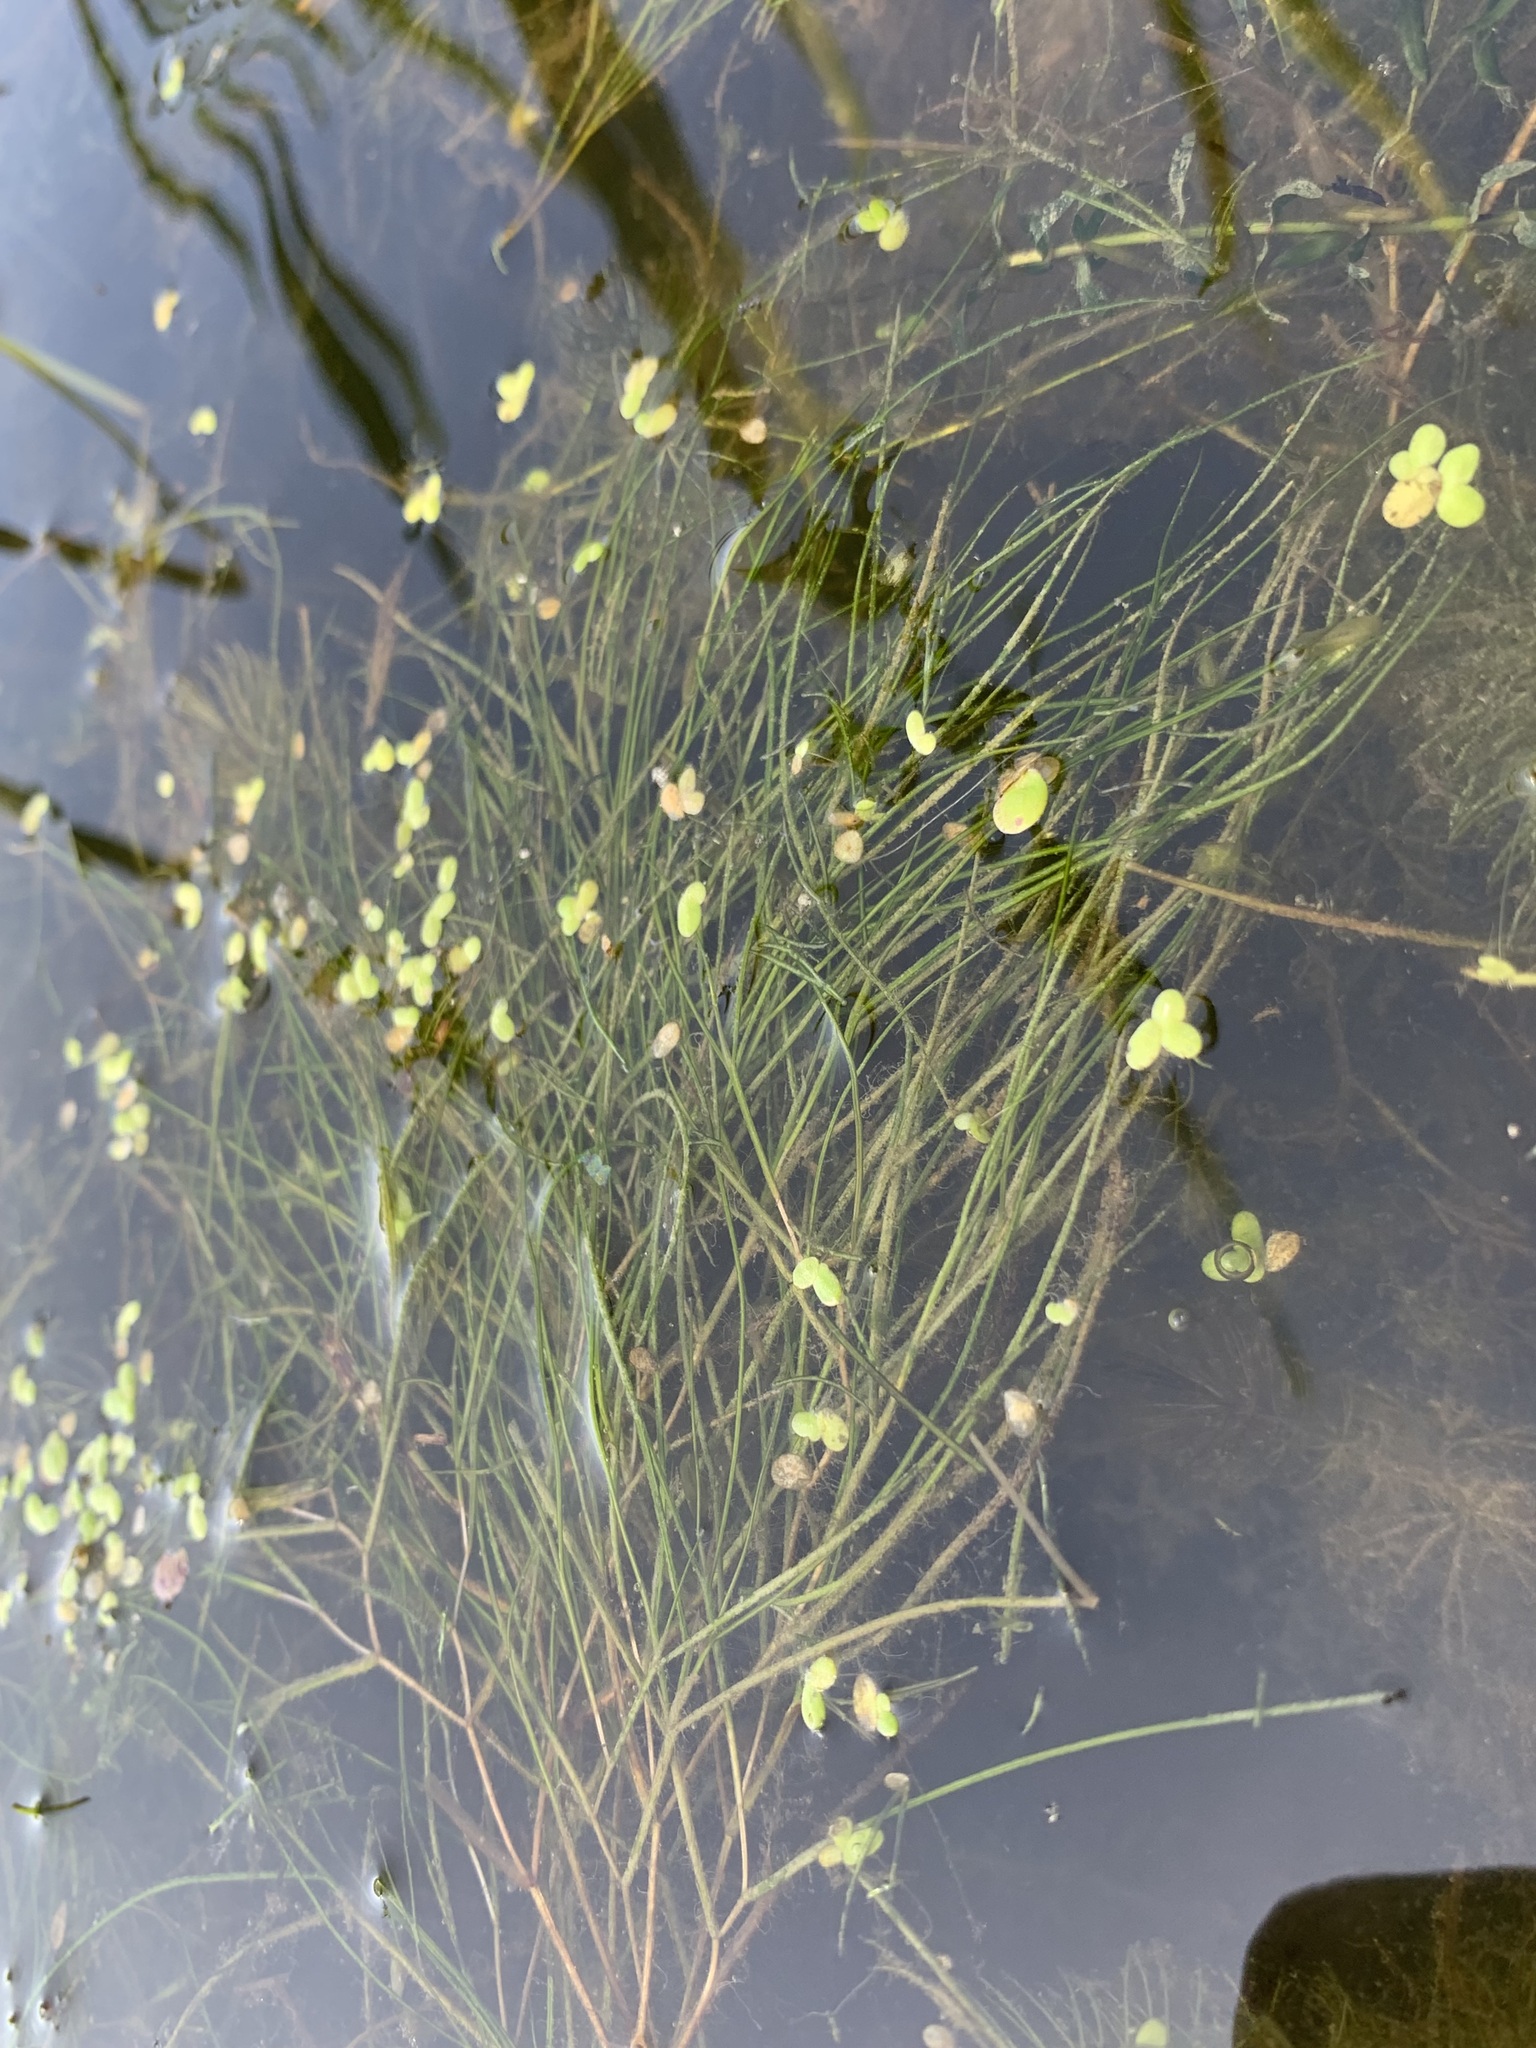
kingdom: Plantae
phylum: Tracheophyta
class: Liliopsida
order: Alismatales
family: Potamogetonaceae
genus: Stuckenia
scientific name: Stuckenia pectinata
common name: Sago pondweed
